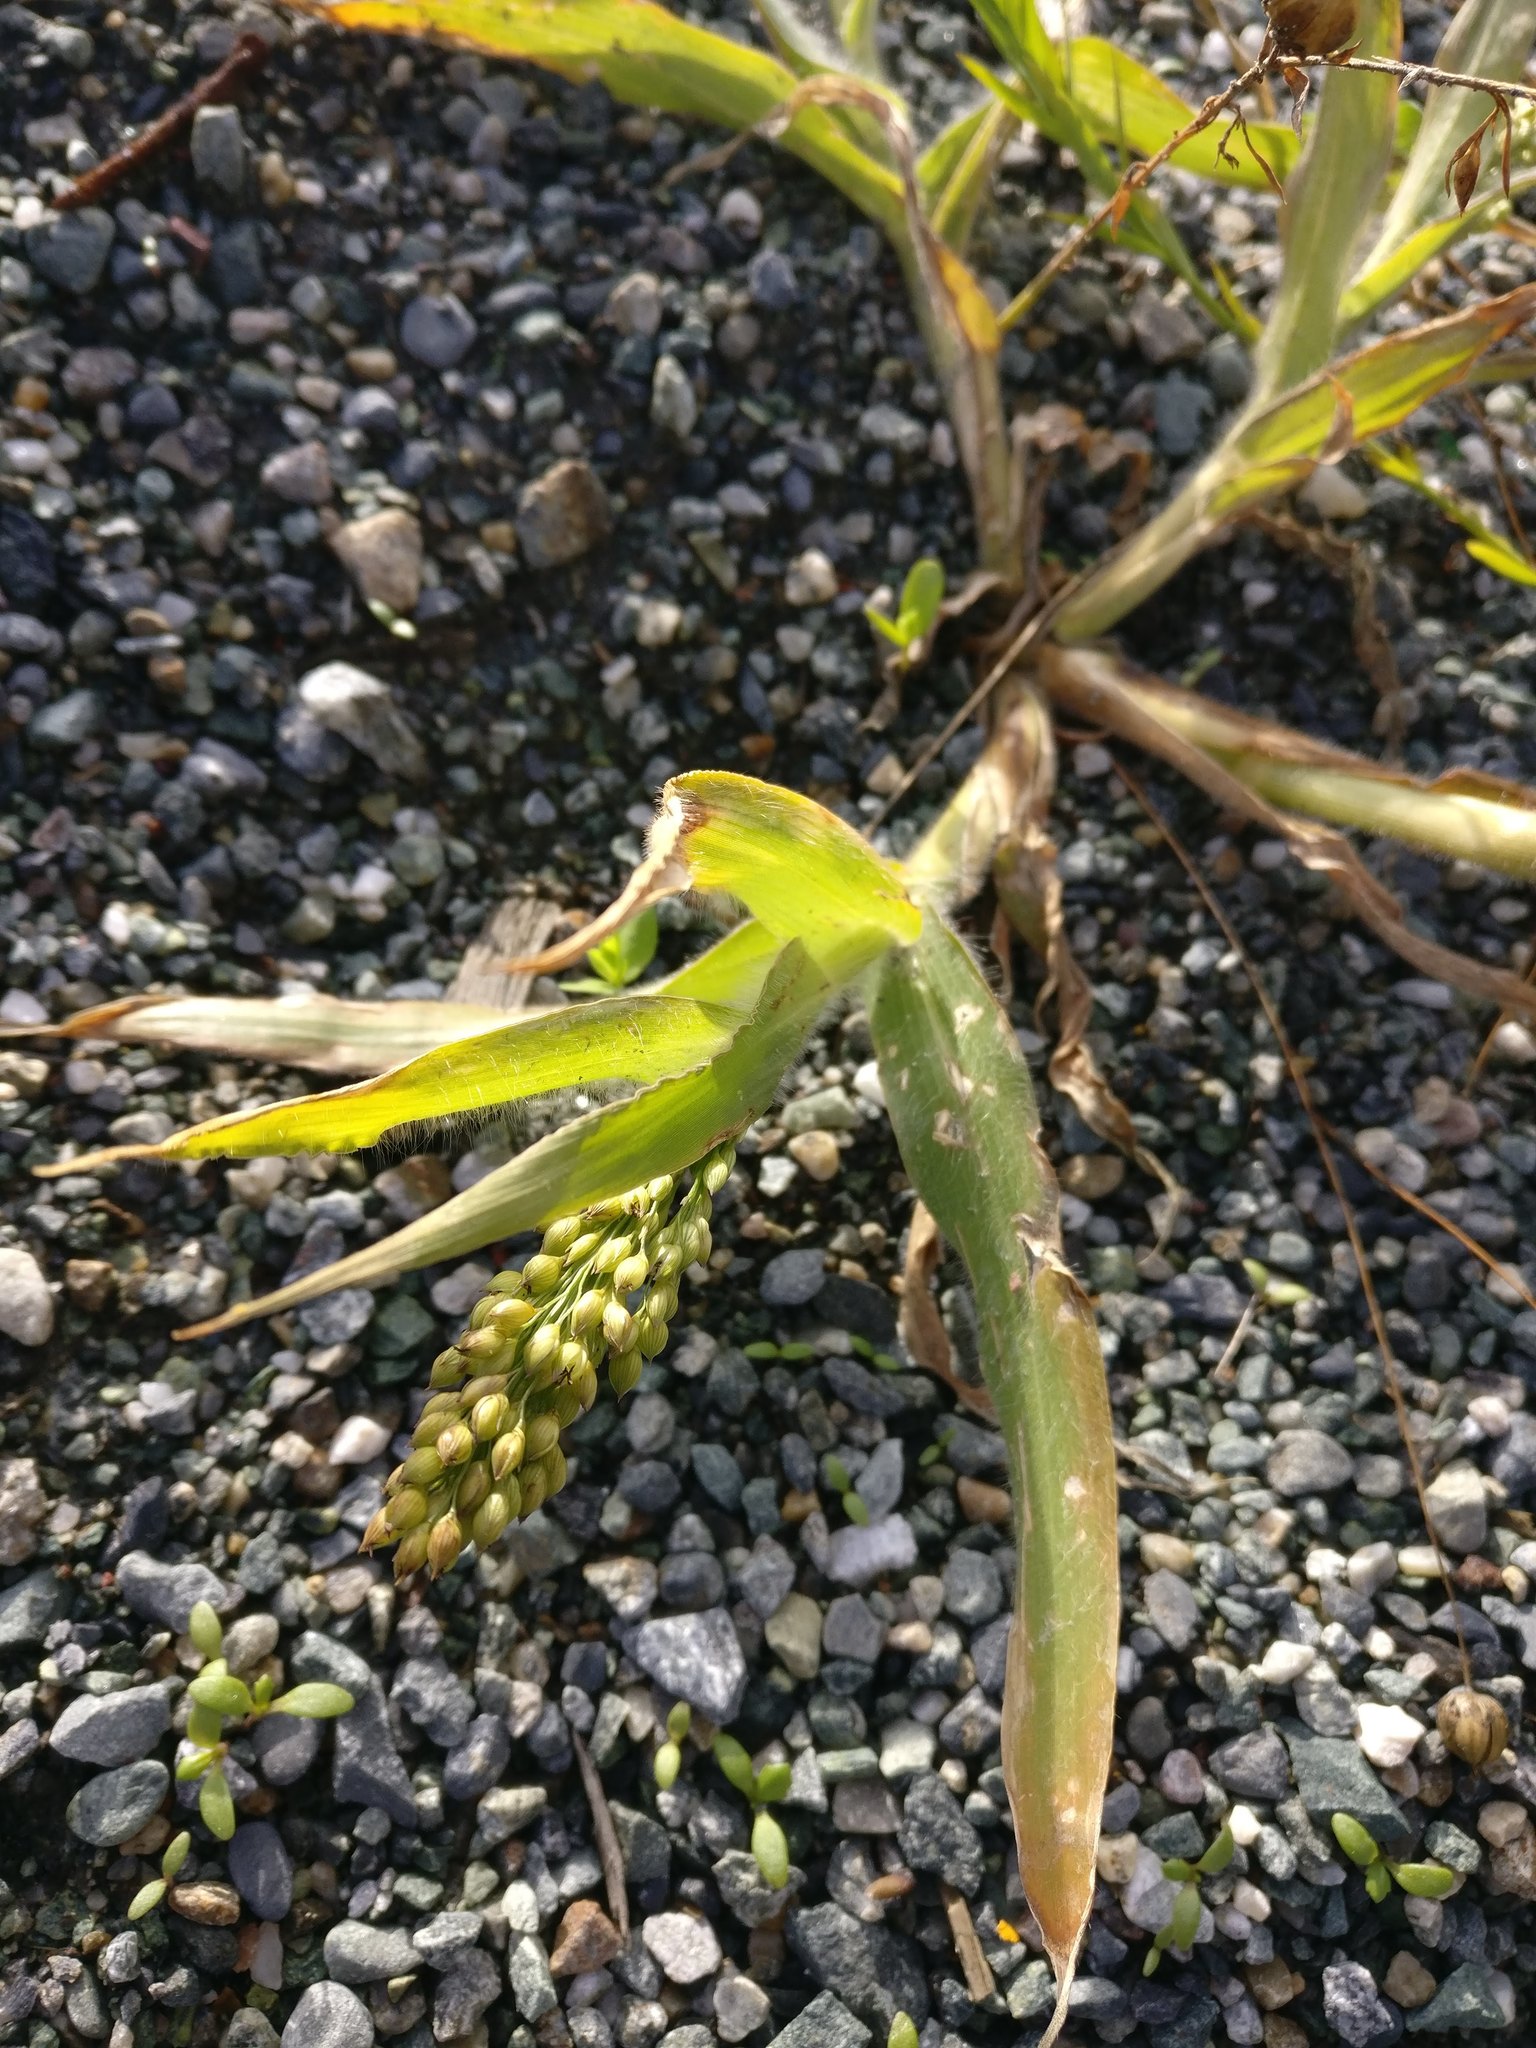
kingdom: Plantae
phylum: Tracheophyta
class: Liliopsida
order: Poales
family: Poaceae
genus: Panicum
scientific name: Panicum miliaceum
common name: Common millet
